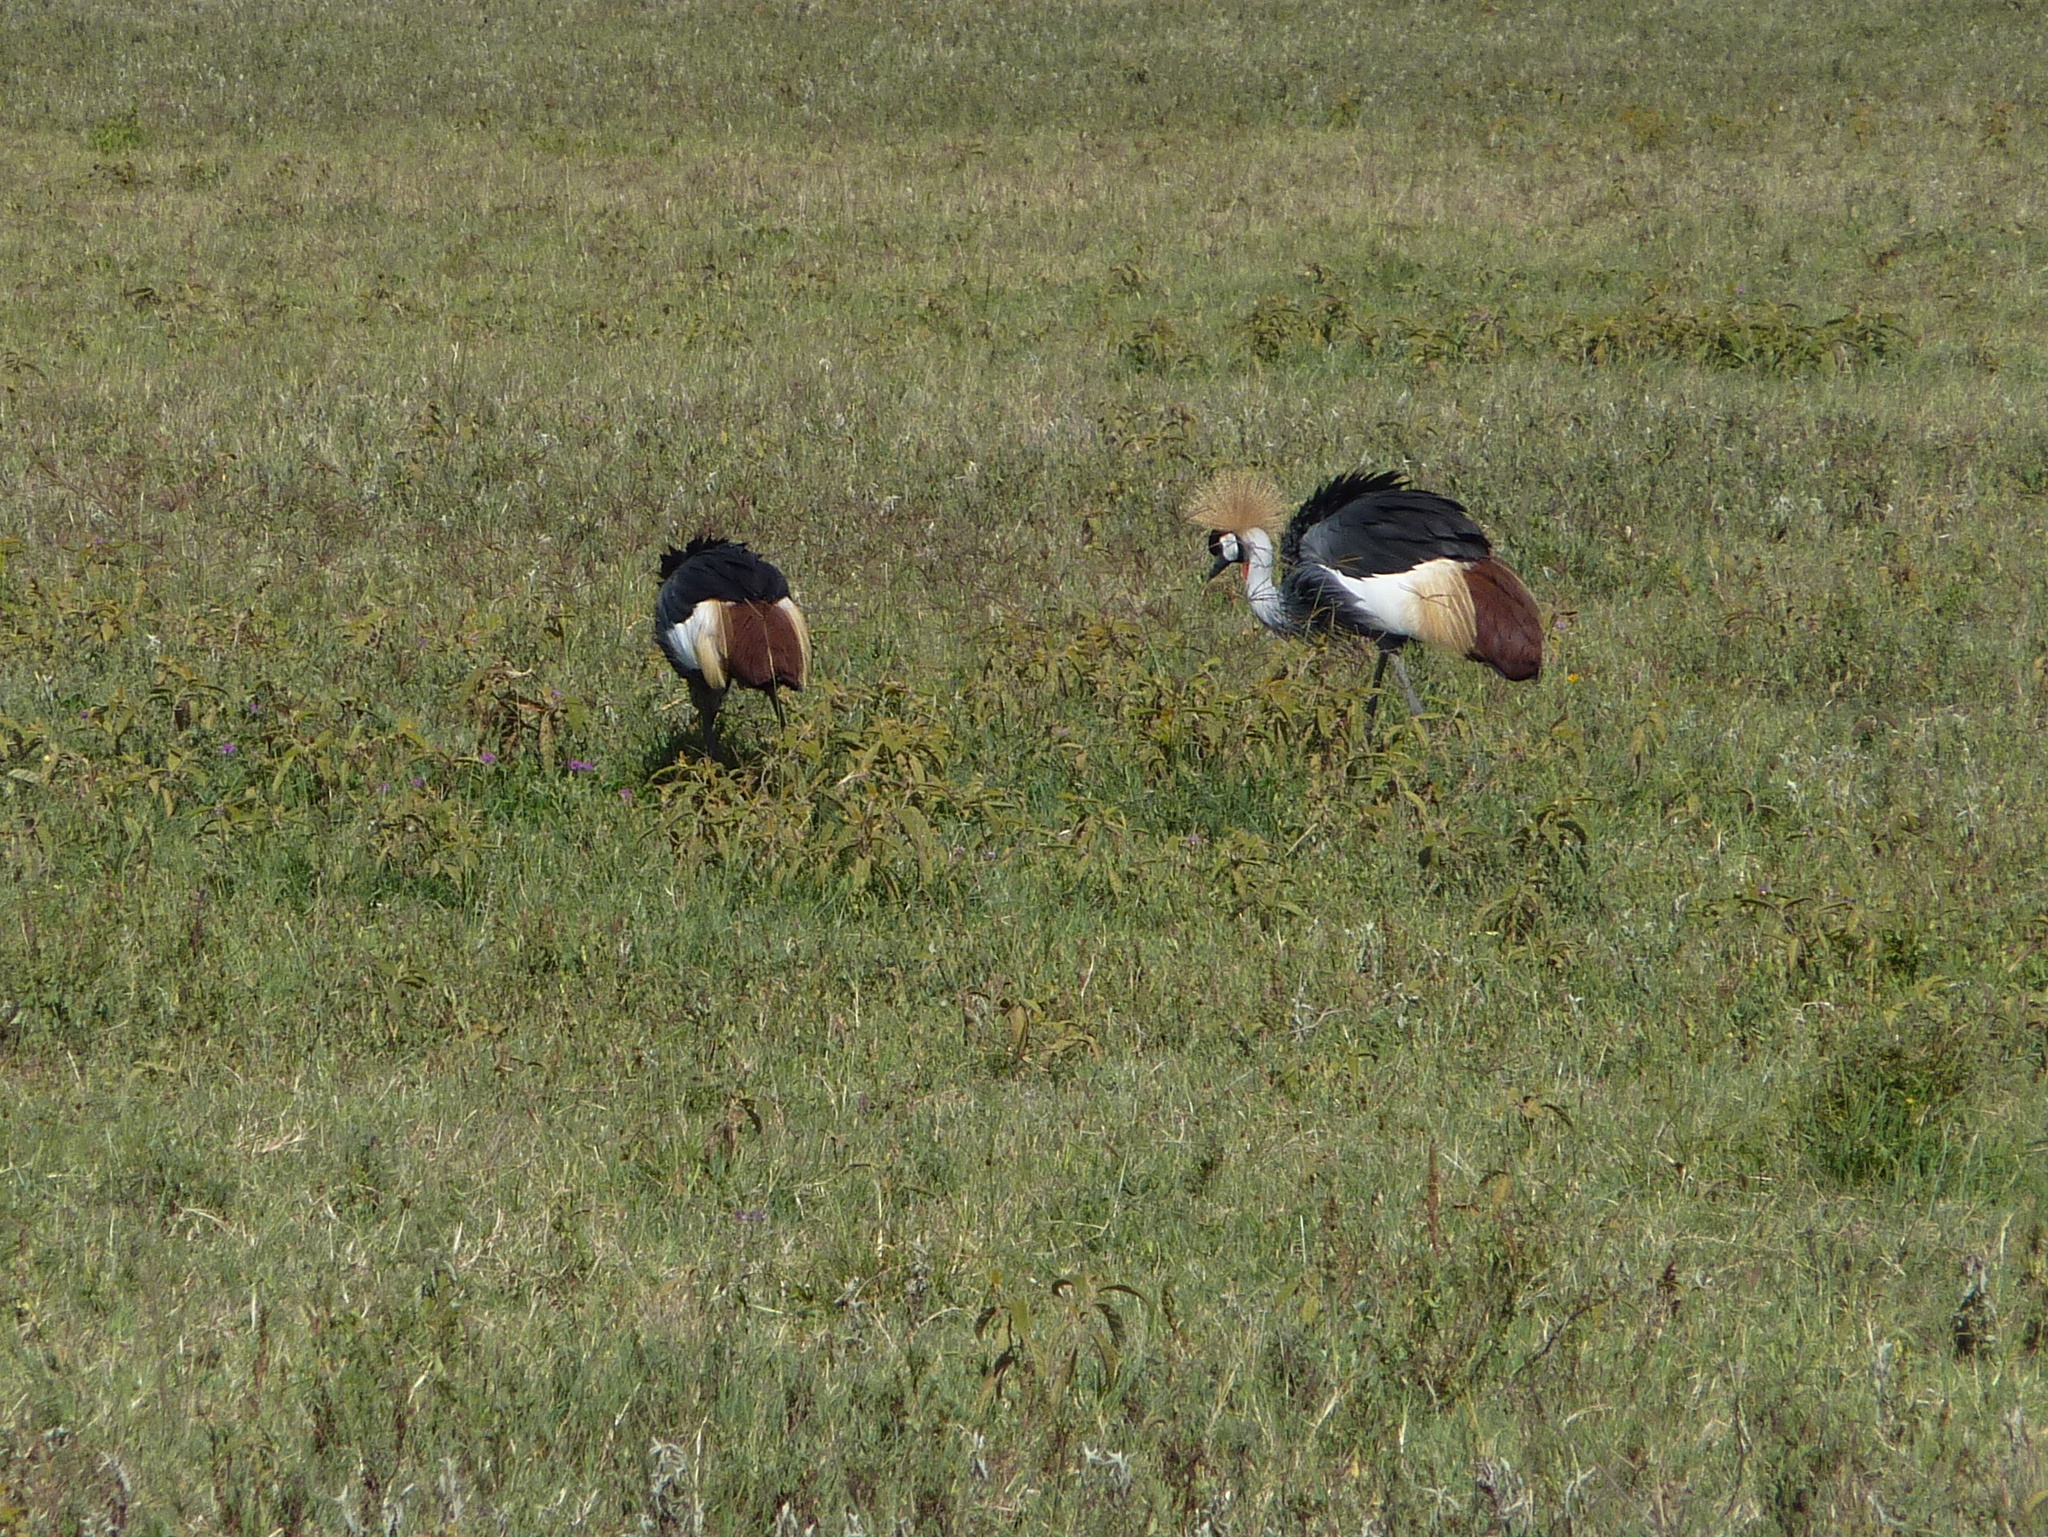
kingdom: Animalia
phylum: Chordata
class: Aves
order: Gruiformes
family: Gruidae
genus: Balearica
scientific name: Balearica regulorum
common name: Grey crowned crane
